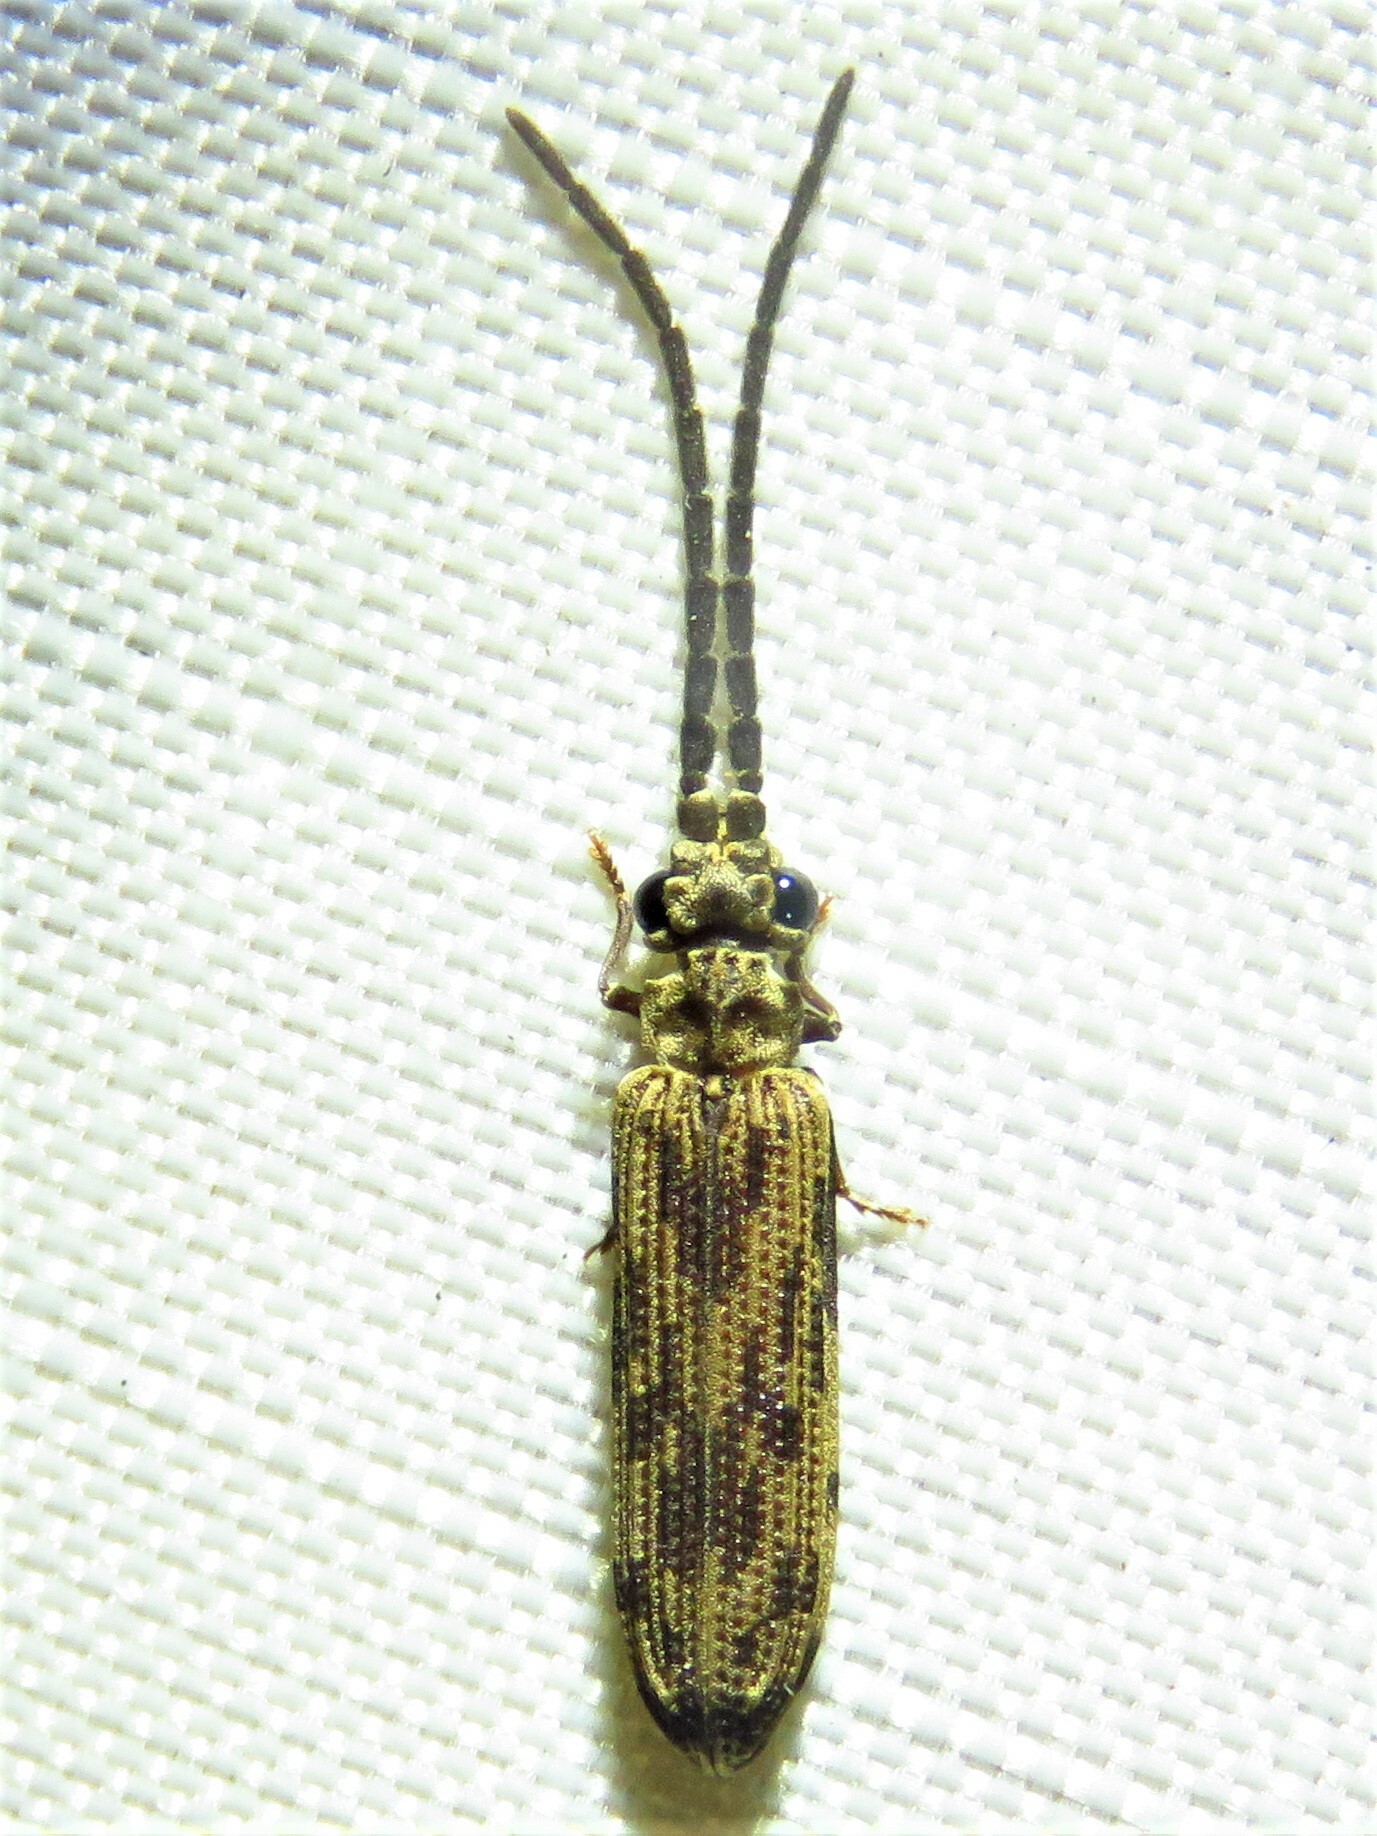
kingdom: Animalia
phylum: Arthropoda
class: Insecta
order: Coleoptera
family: Cupedidae
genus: Tenomerga
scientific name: Tenomerga cinerea
